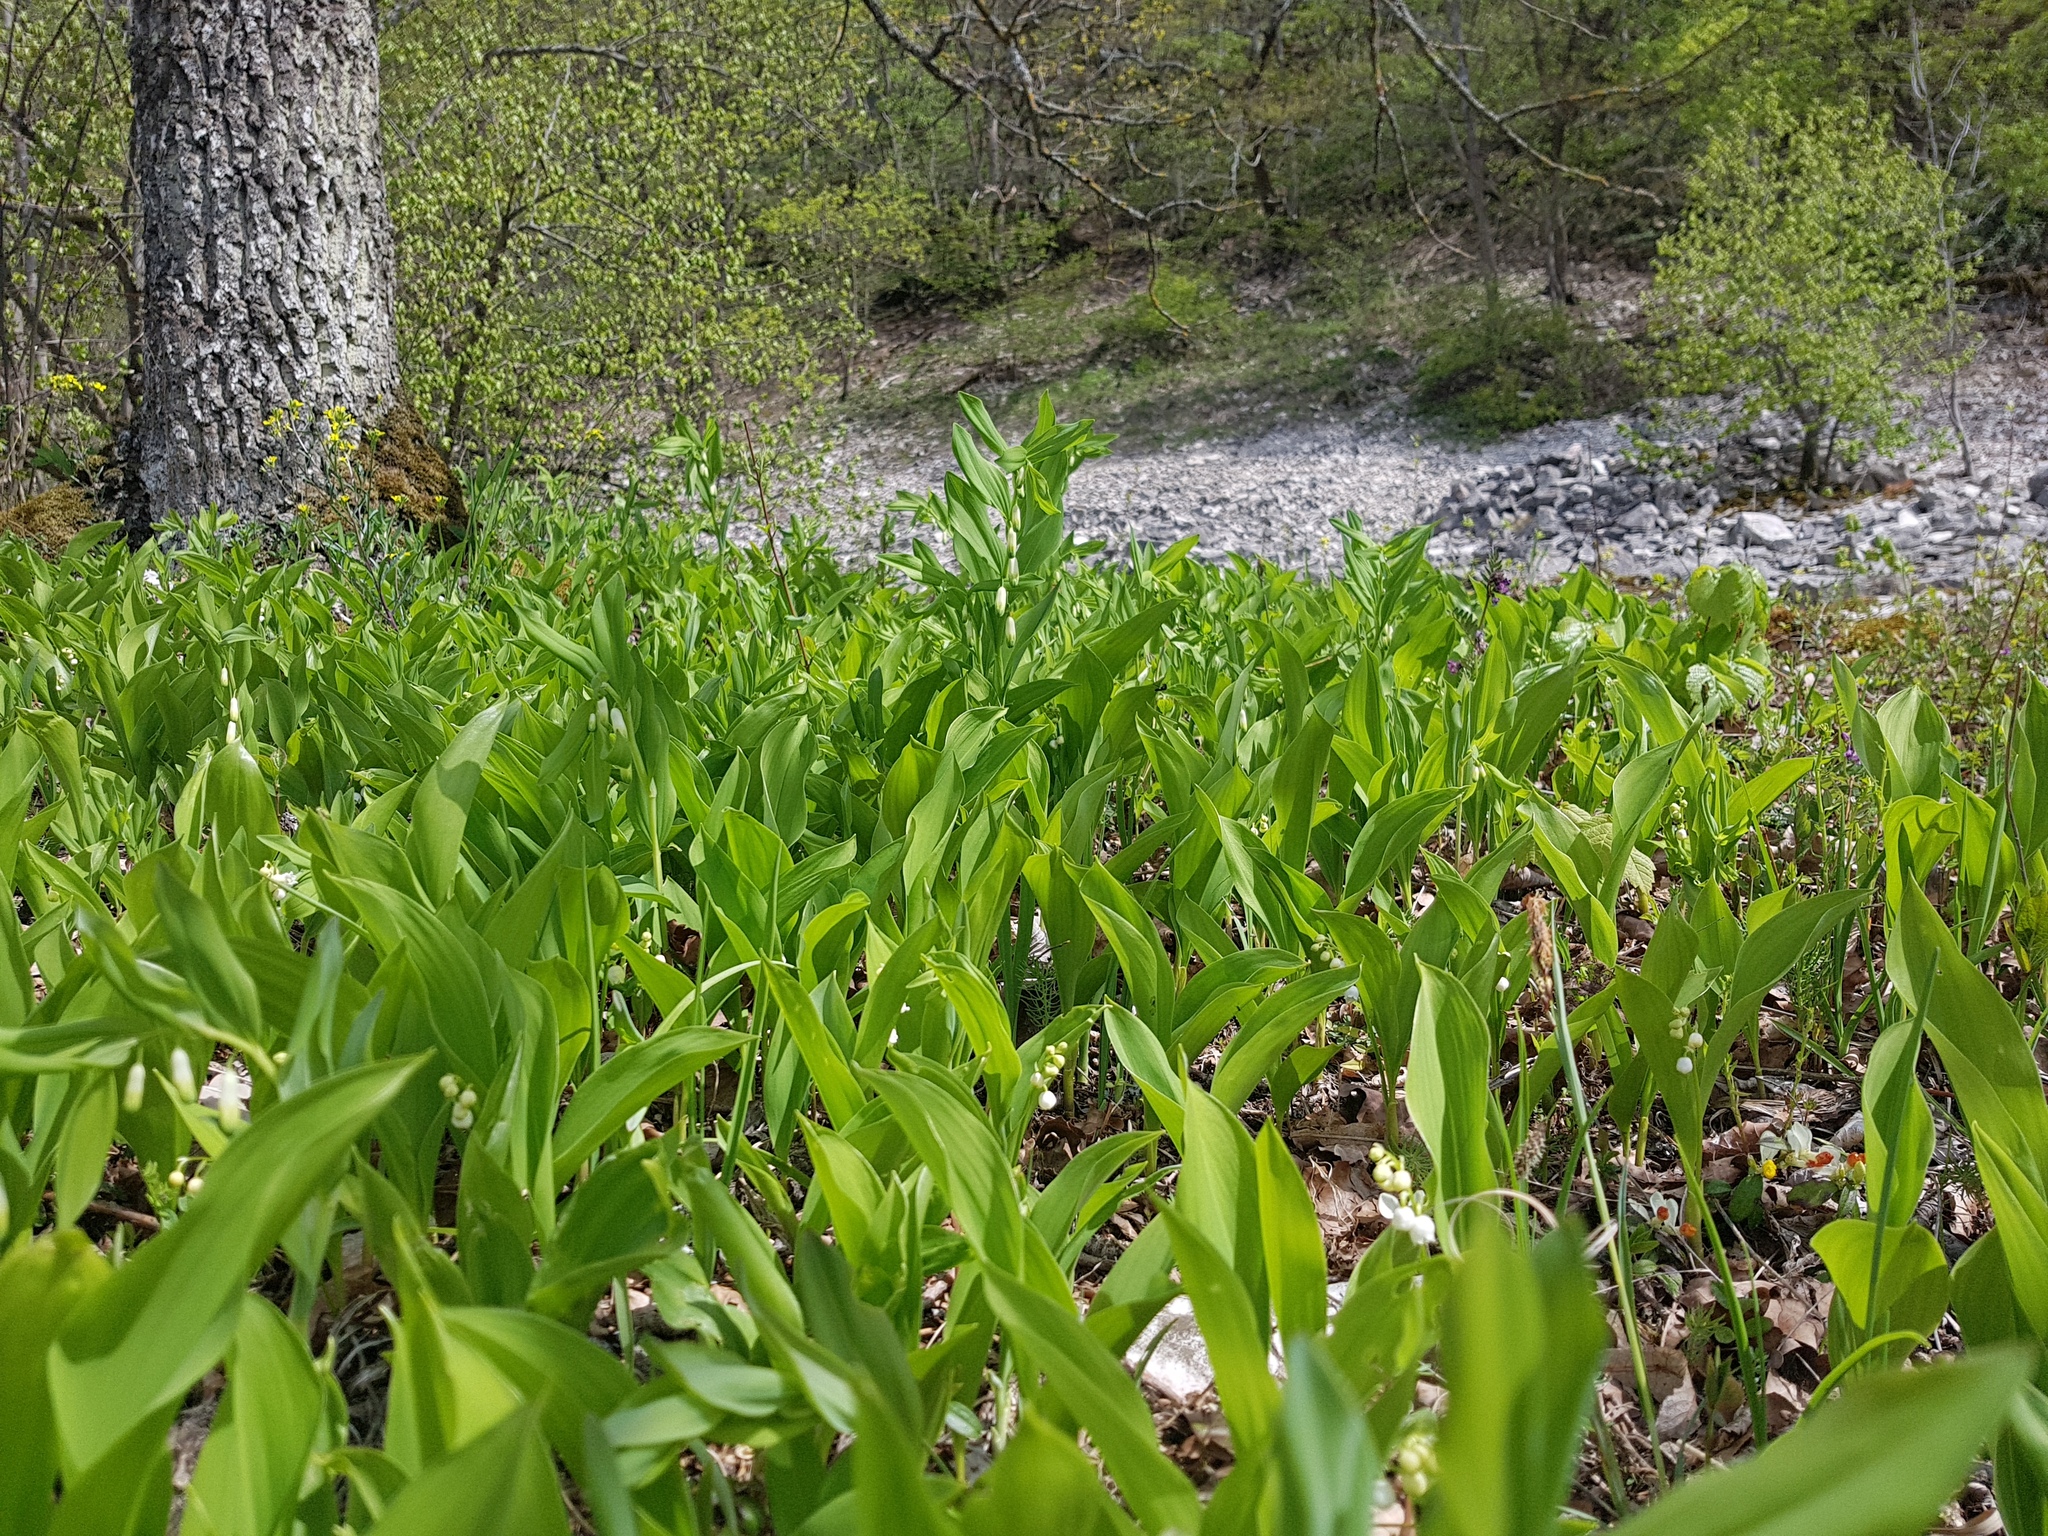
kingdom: Plantae
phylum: Tracheophyta
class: Liliopsida
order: Asparagales
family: Asparagaceae
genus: Convallaria
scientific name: Convallaria majalis
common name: Lily-of-the-valley
